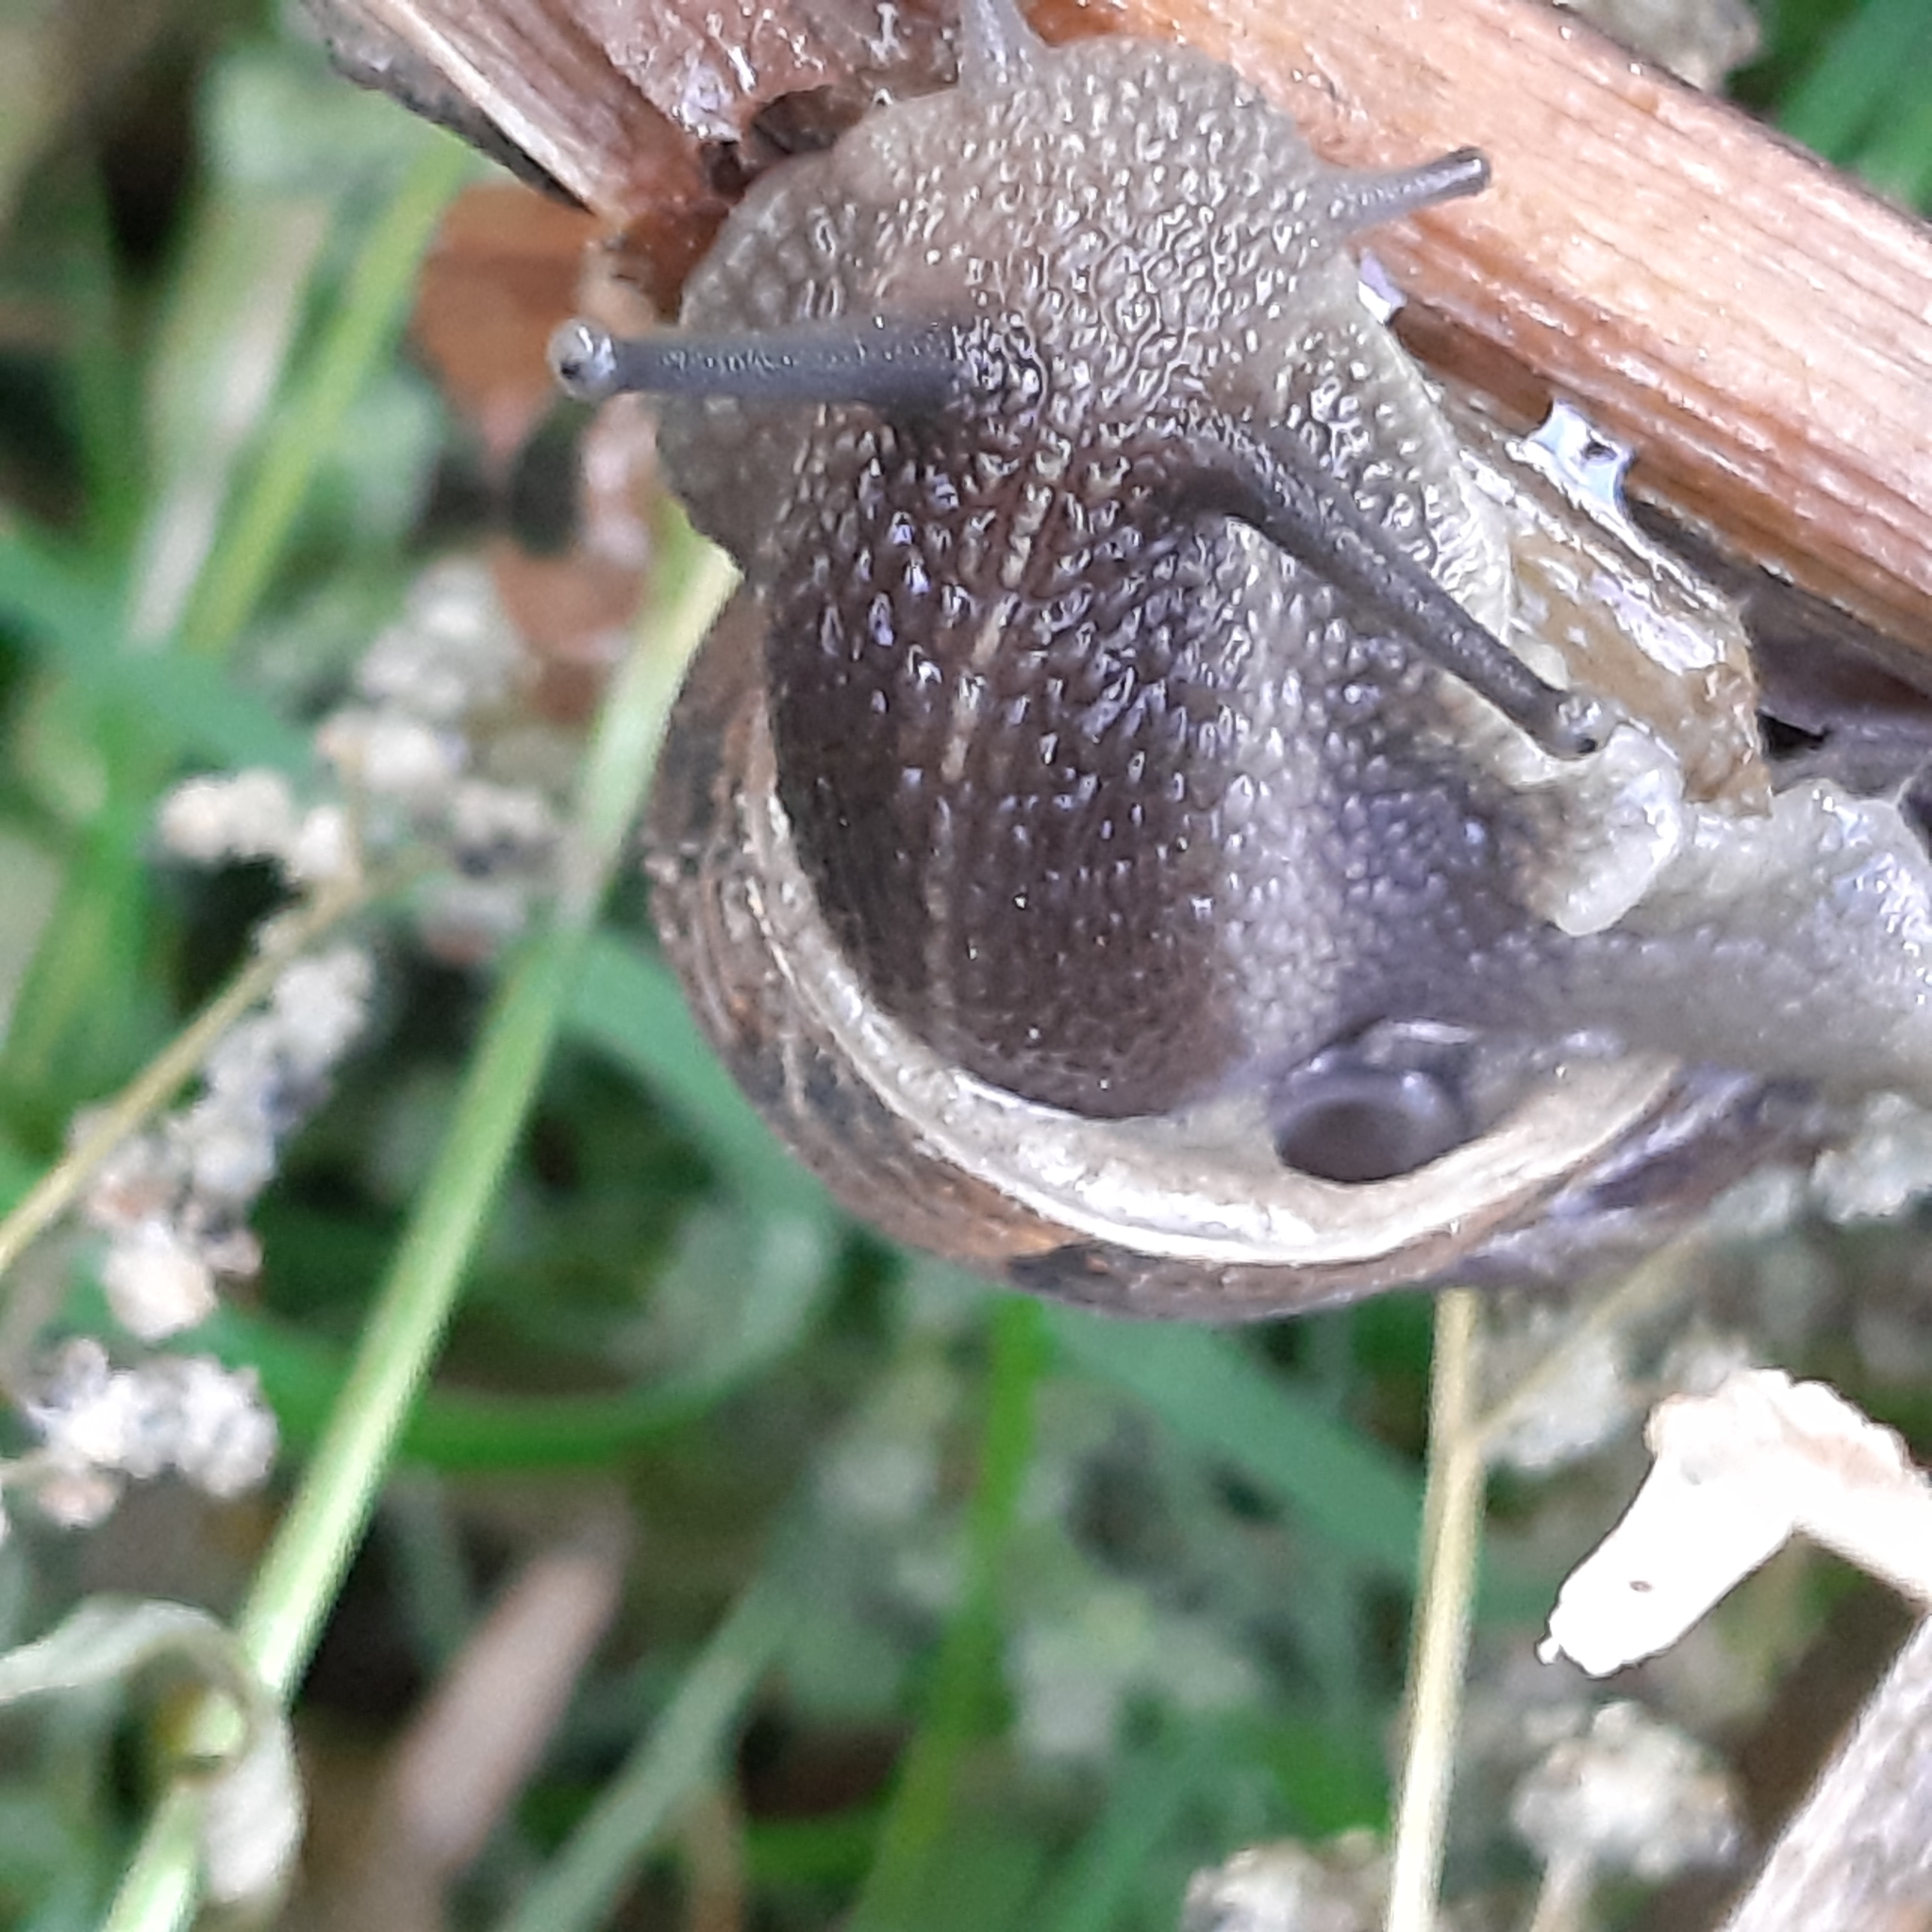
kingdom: Animalia
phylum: Mollusca
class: Gastropoda
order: Stylommatophora
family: Helicidae
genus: Cornu
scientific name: Cornu aspersum
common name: Brown garden snail
